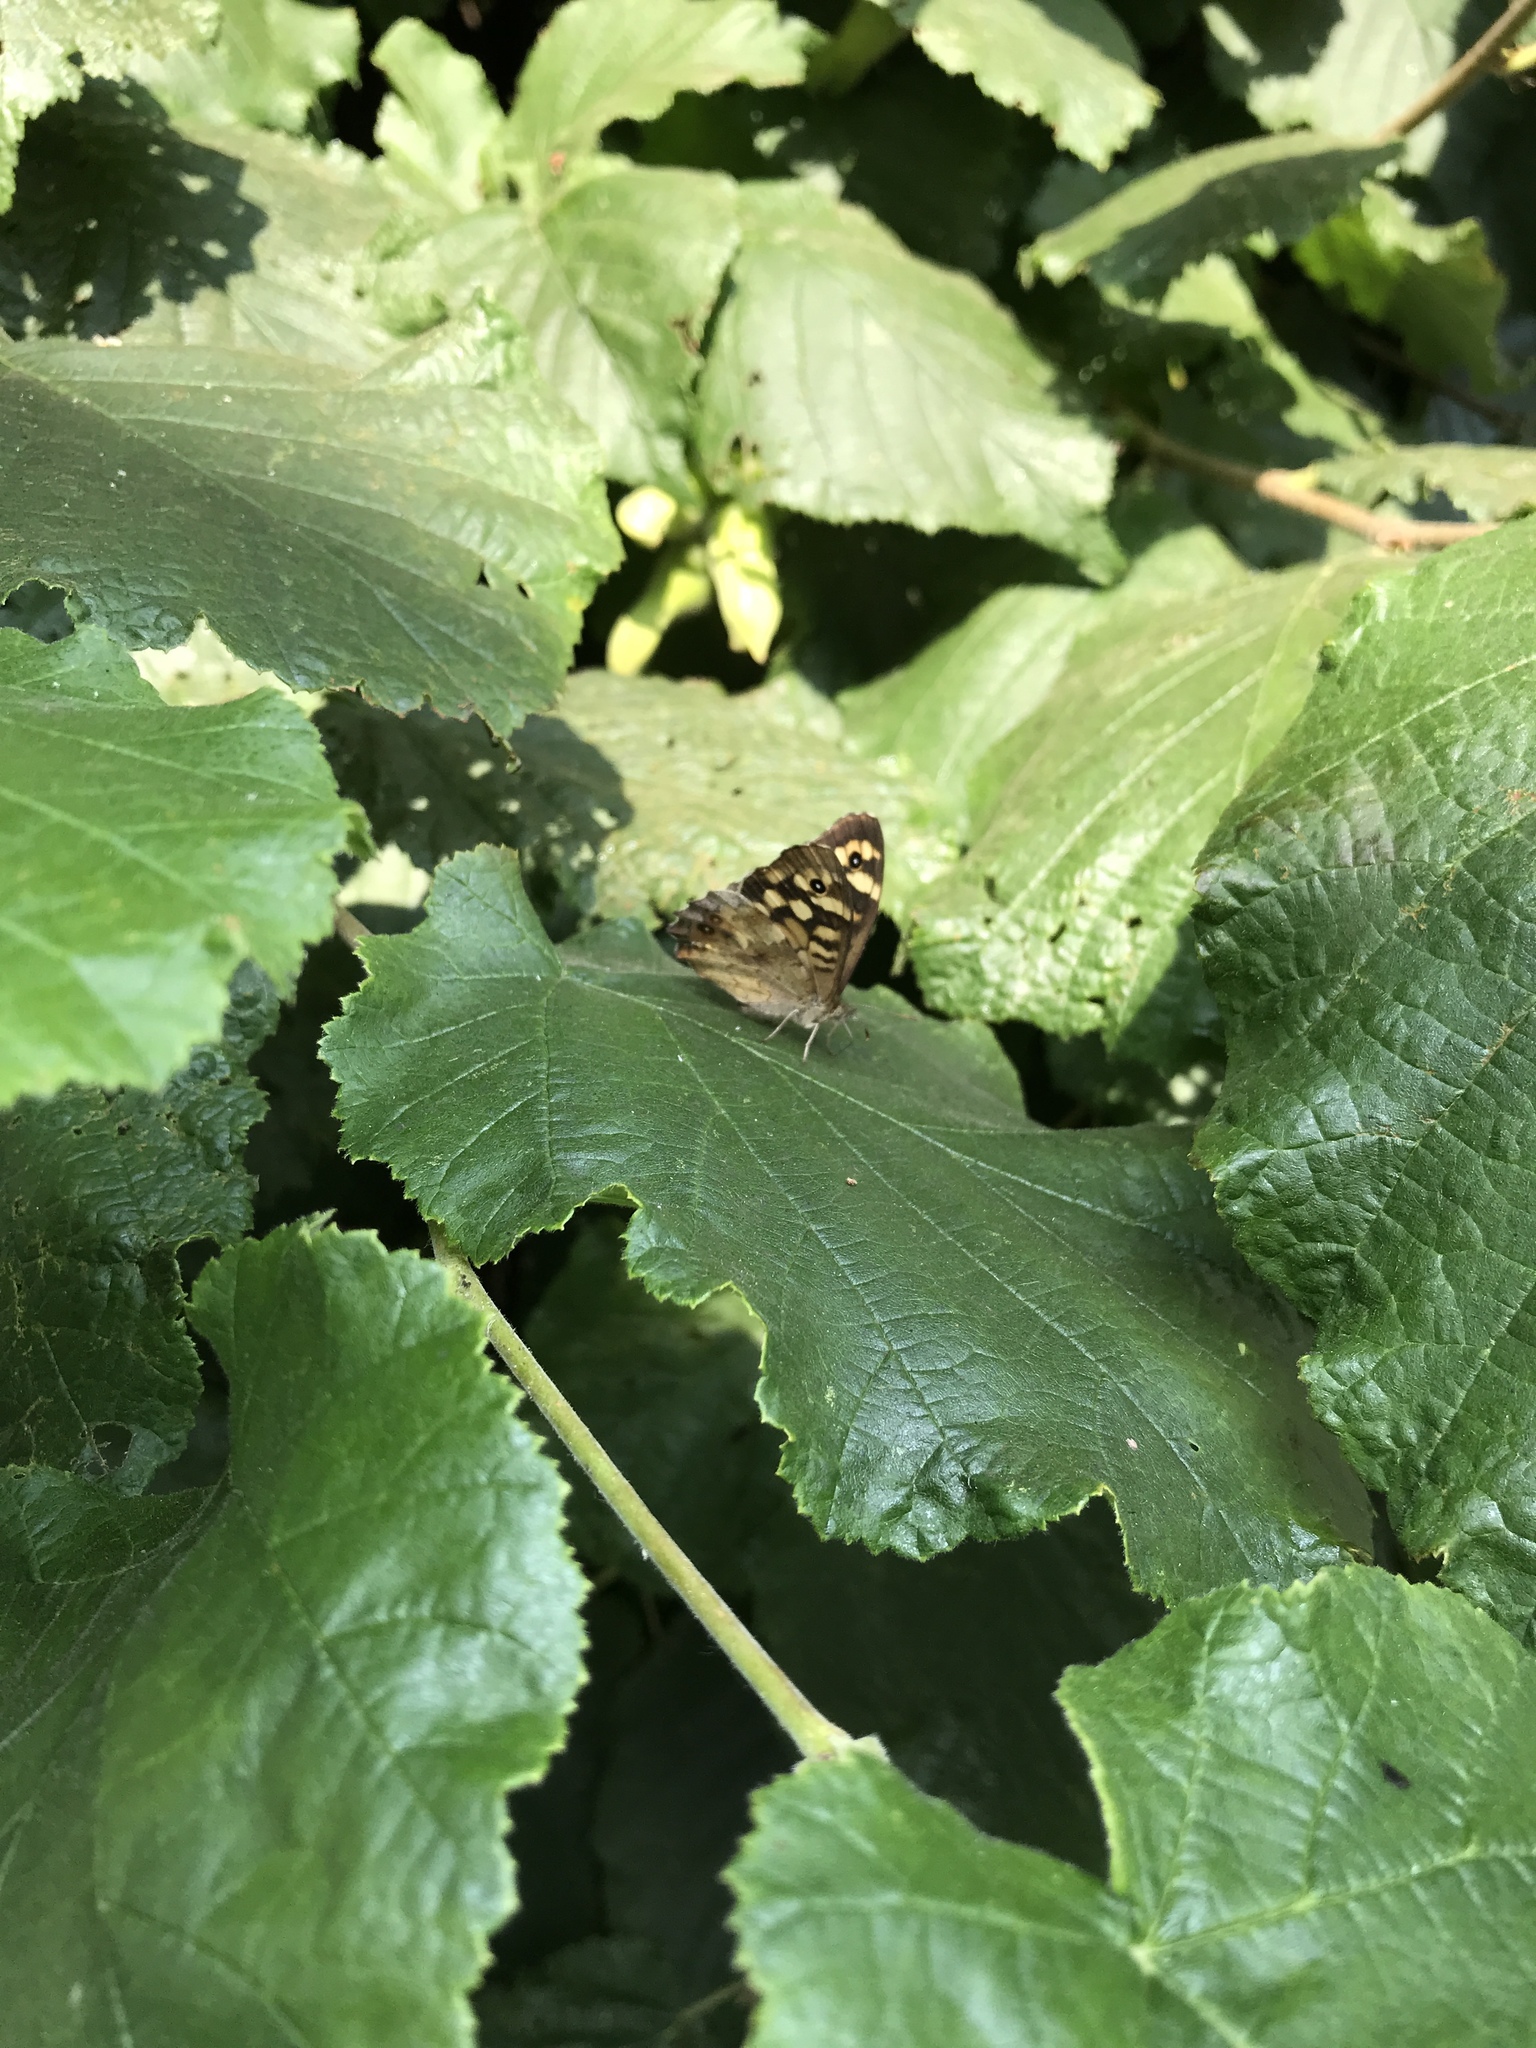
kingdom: Animalia
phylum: Arthropoda
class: Insecta
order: Lepidoptera
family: Nymphalidae
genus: Pararge
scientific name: Pararge aegeria
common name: Speckled wood
